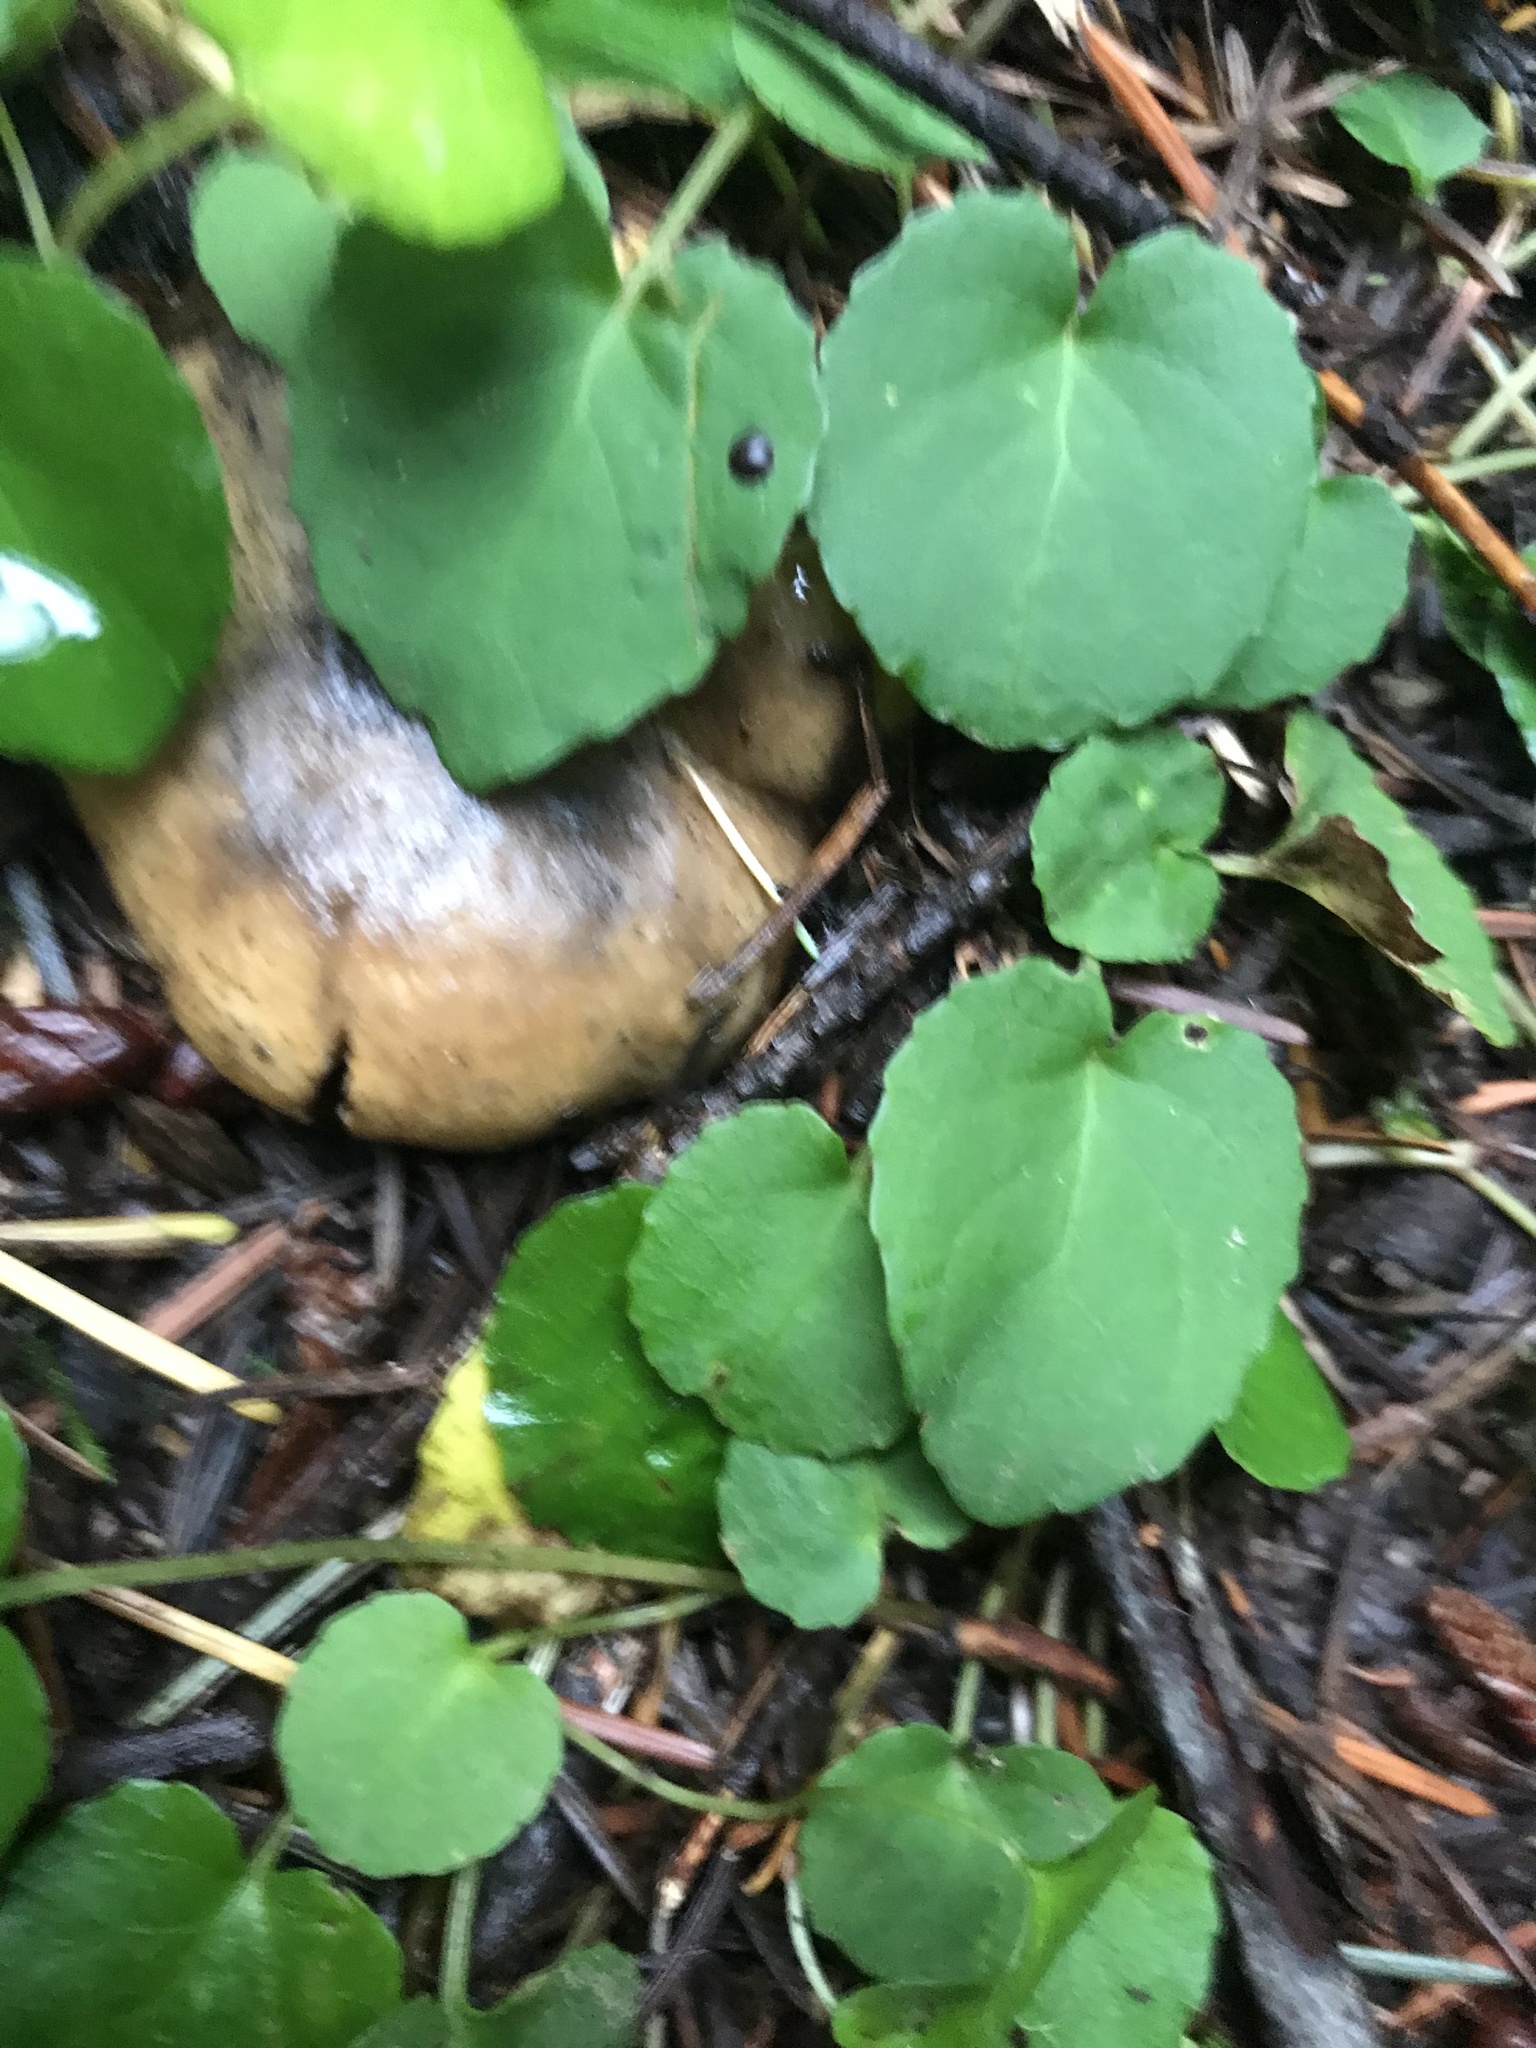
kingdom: Plantae
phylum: Tracheophyta
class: Magnoliopsida
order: Malpighiales
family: Violaceae
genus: Viola
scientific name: Viola sempervirens
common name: Evergreen violet
